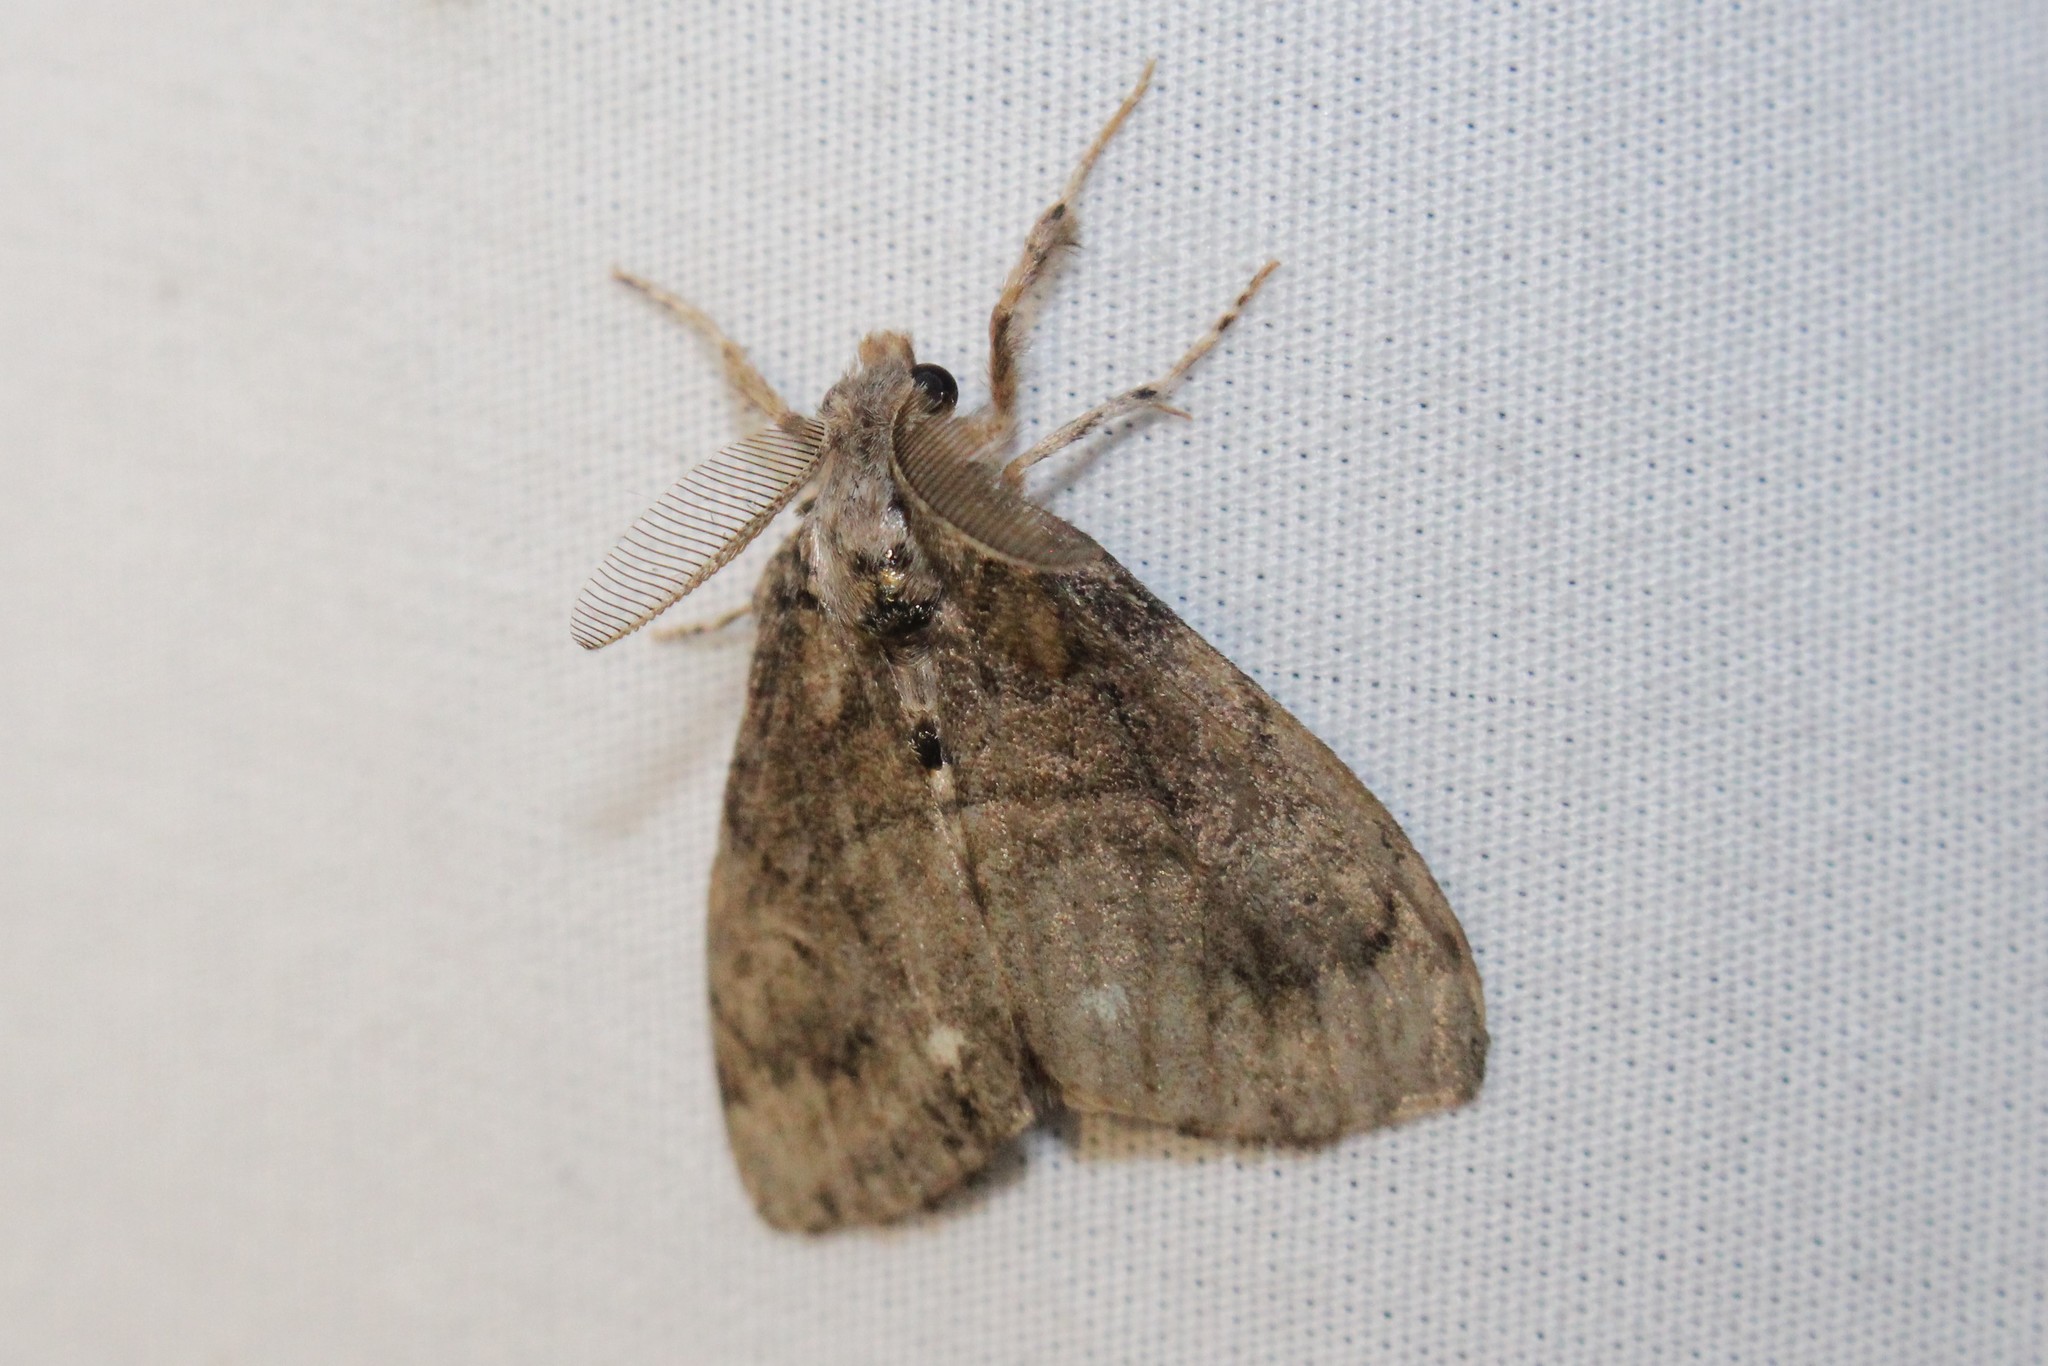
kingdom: Animalia
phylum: Arthropoda
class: Insecta
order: Lepidoptera
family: Erebidae
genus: Orgyia
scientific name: Orgyia leucostigma
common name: White-marked tussock moth
